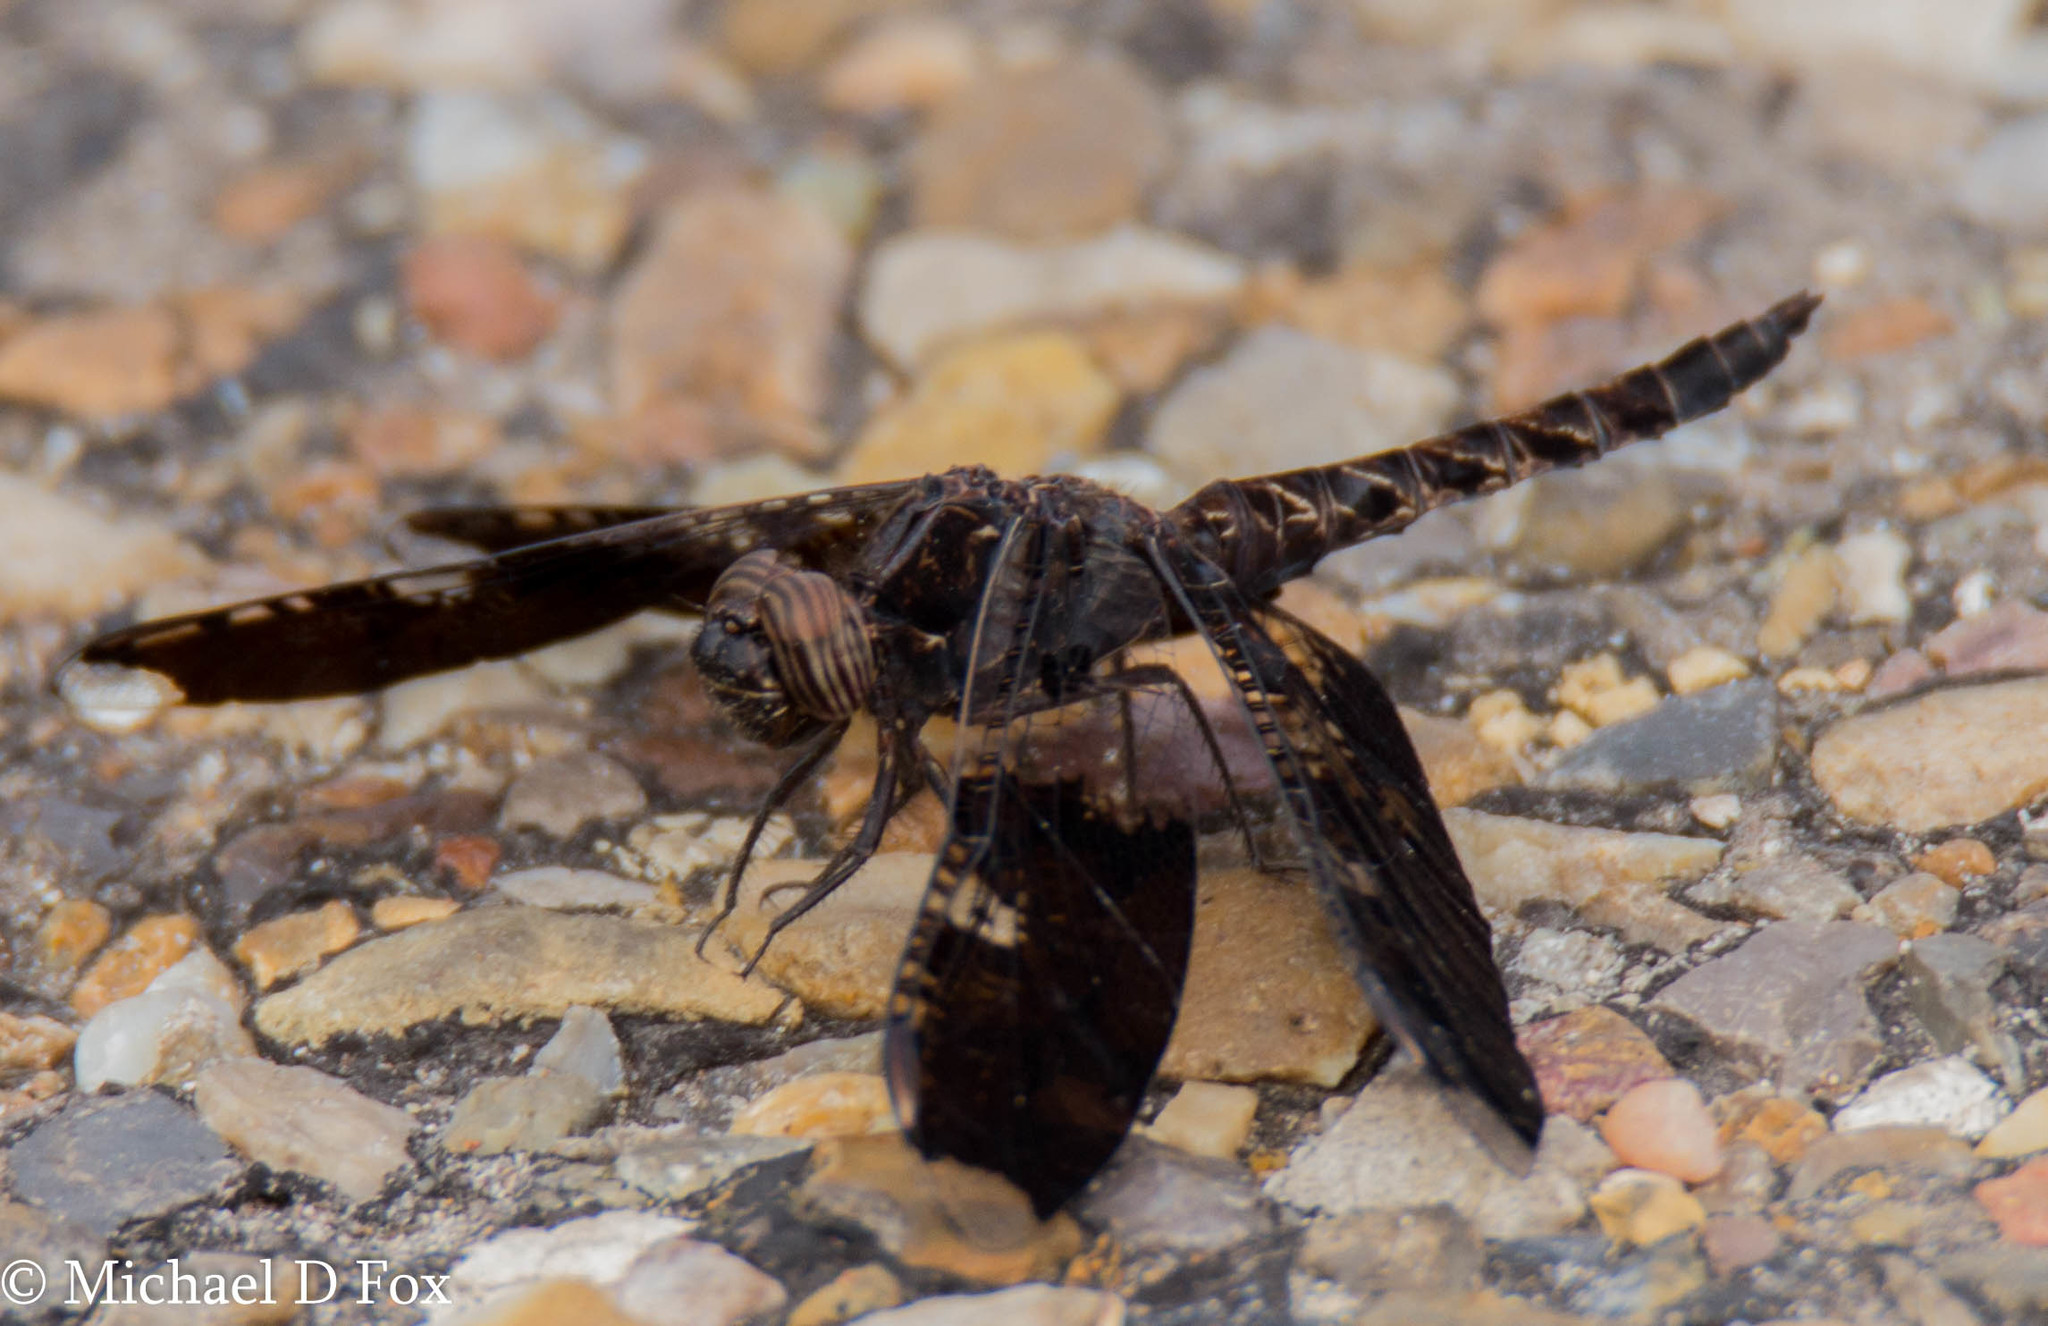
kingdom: Animalia
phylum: Arthropoda
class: Insecta
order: Odonata
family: Libellulidae
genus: Pseudoleon
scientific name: Pseudoleon superbus
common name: Filigree skimmer
